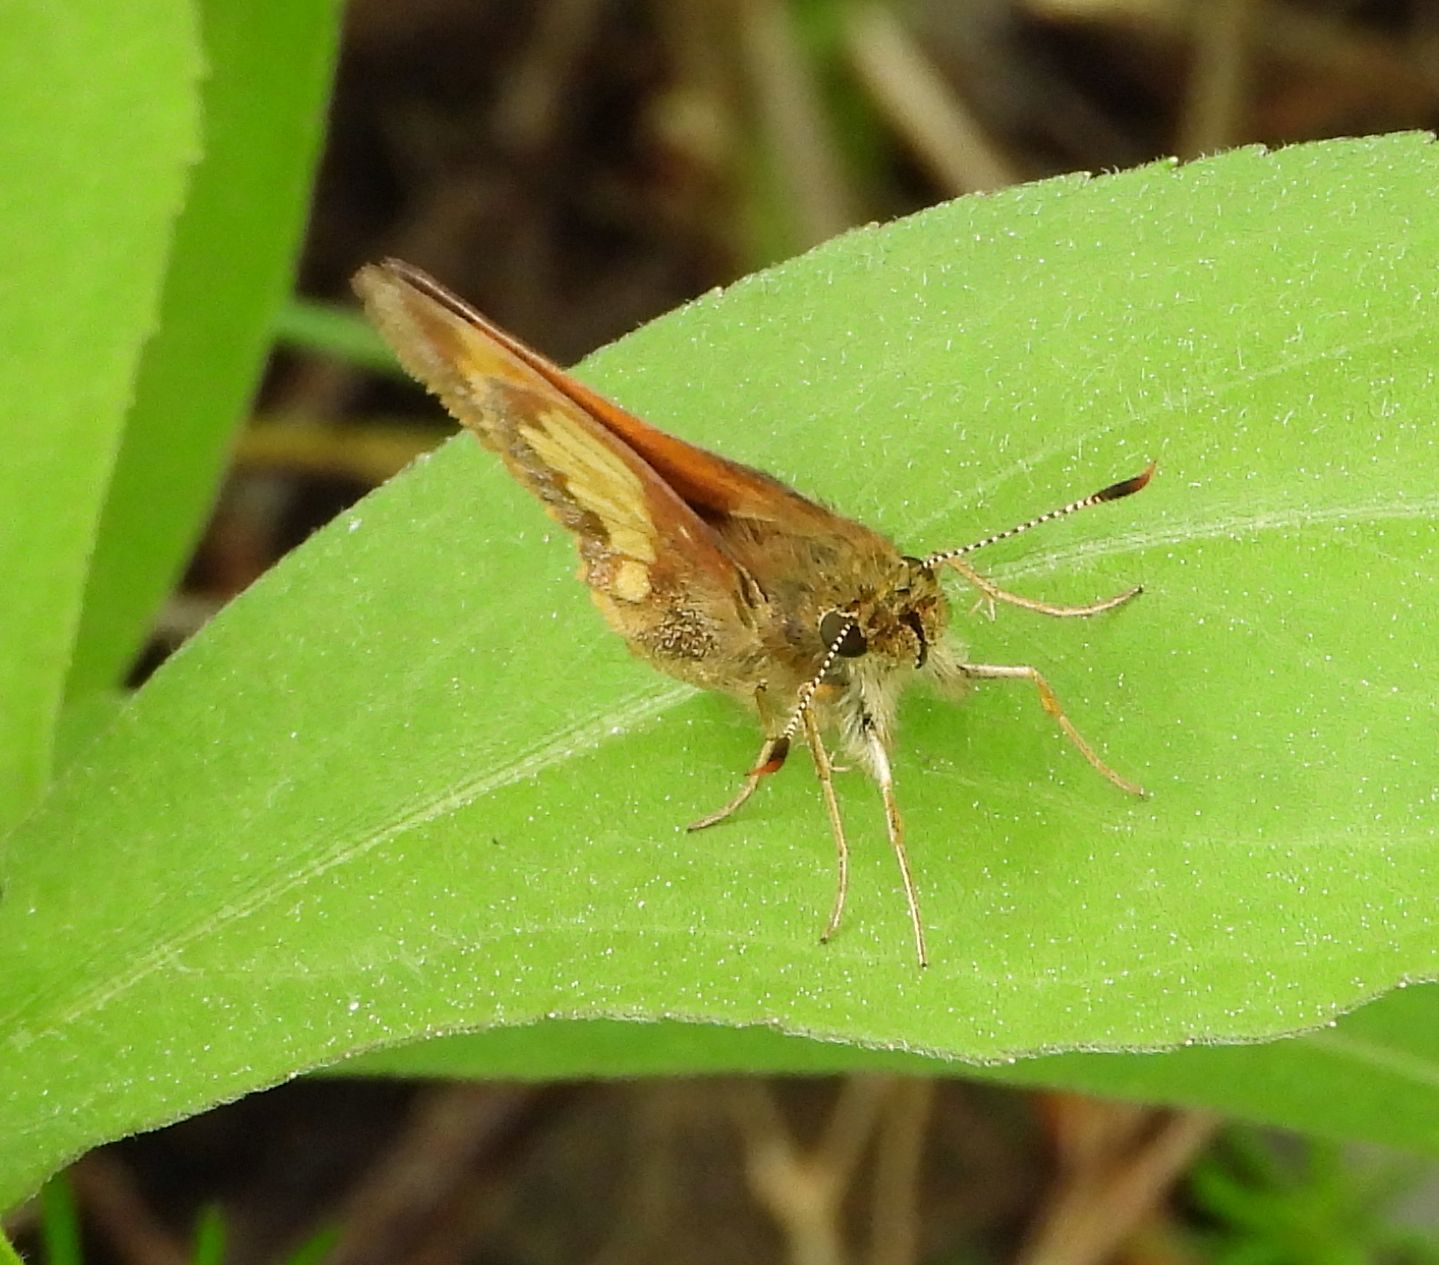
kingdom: Animalia
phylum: Arthropoda
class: Insecta
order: Lepidoptera
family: Hesperiidae
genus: Lon
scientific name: Lon hobomok
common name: Hobomok skipper
